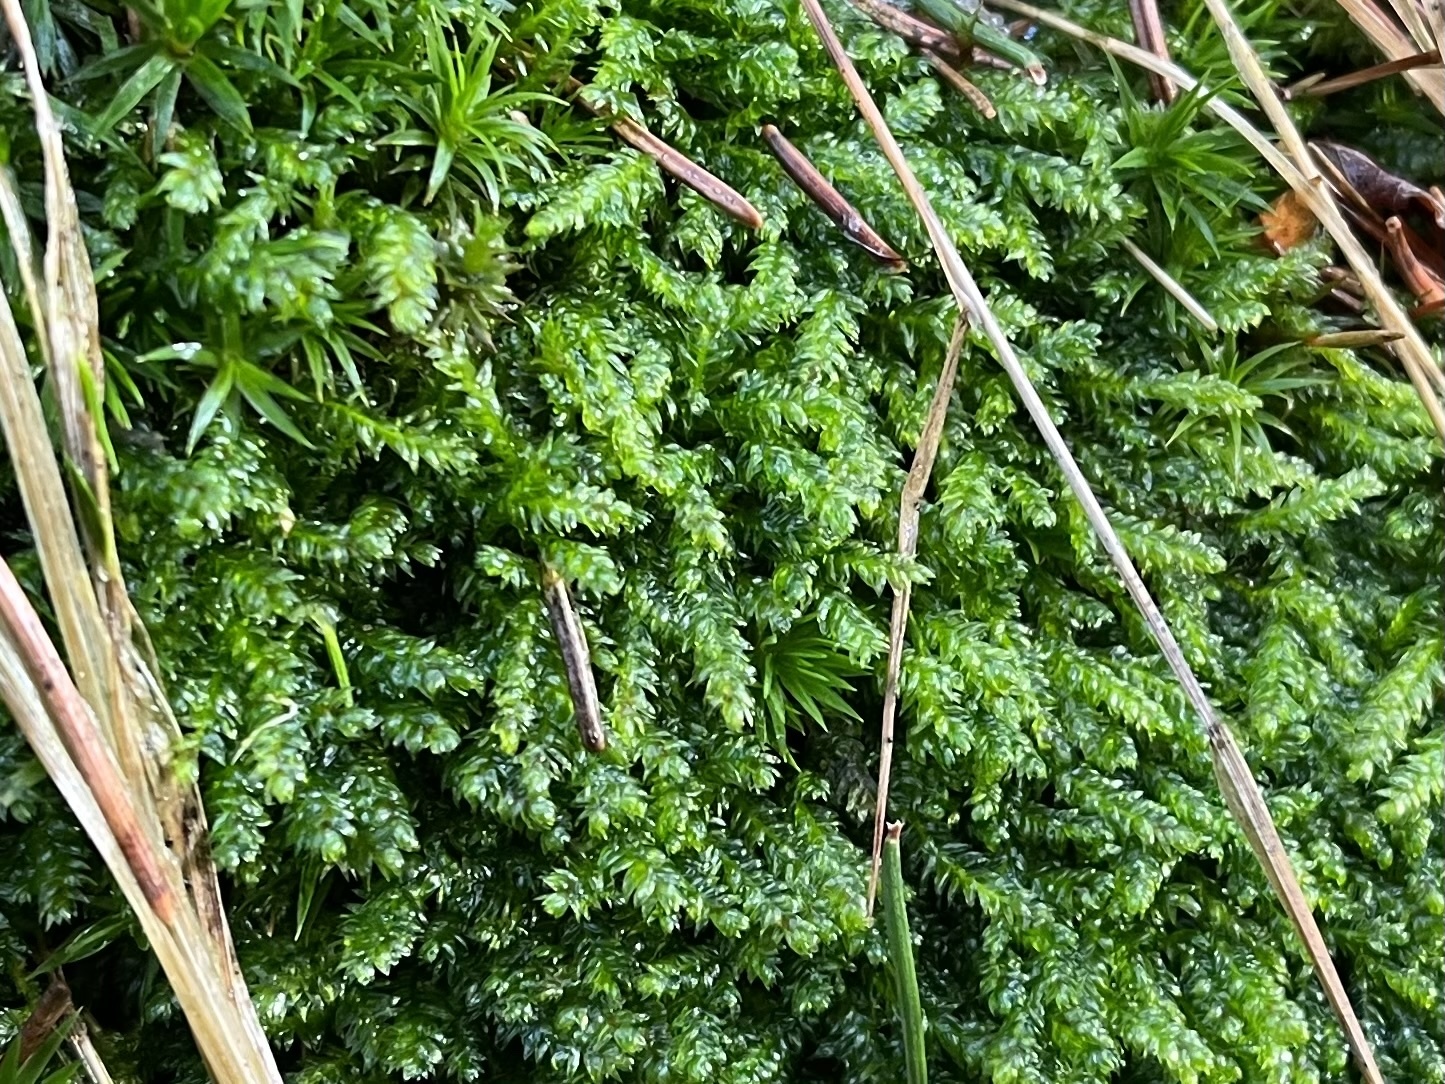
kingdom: Plantae
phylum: Bryophyta
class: Bryopsida
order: Hypnales
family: Plagiotheciaceae
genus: Plagiothecium
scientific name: Plagiothecium curvifolium
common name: Curved silk-moss
